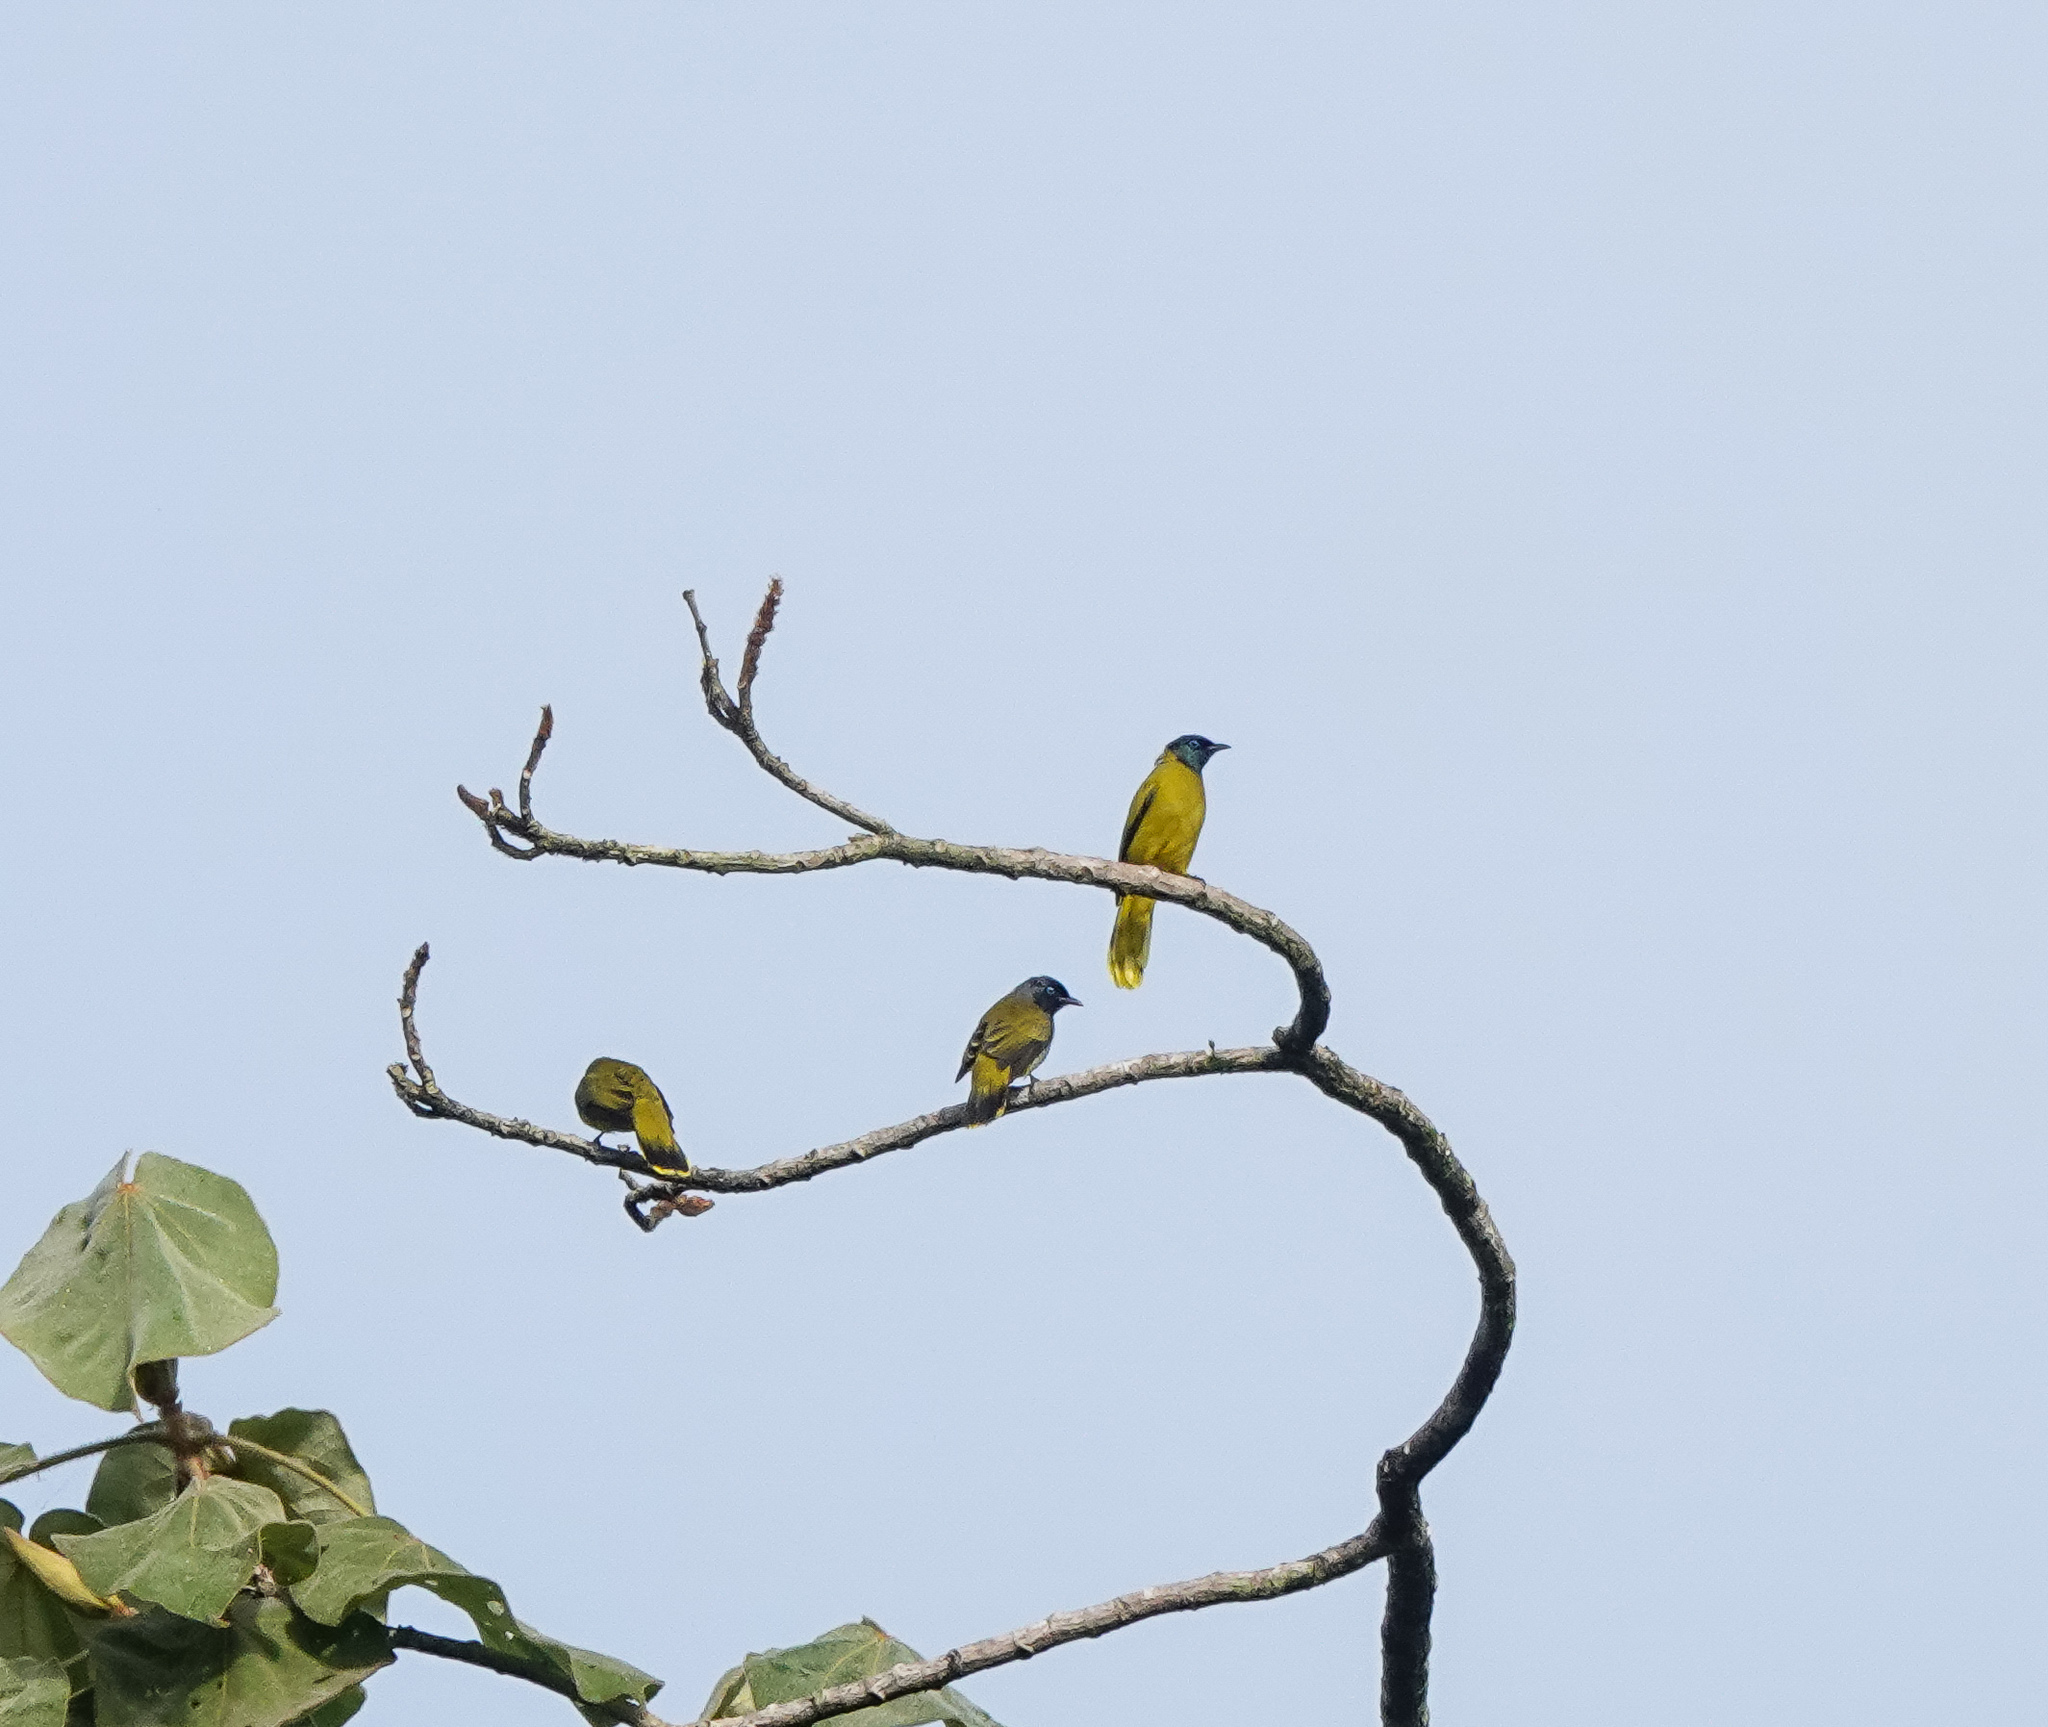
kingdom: Animalia
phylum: Chordata
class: Aves
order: Passeriformes
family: Pycnonotidae
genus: Microtarsus
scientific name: Microtarsus
